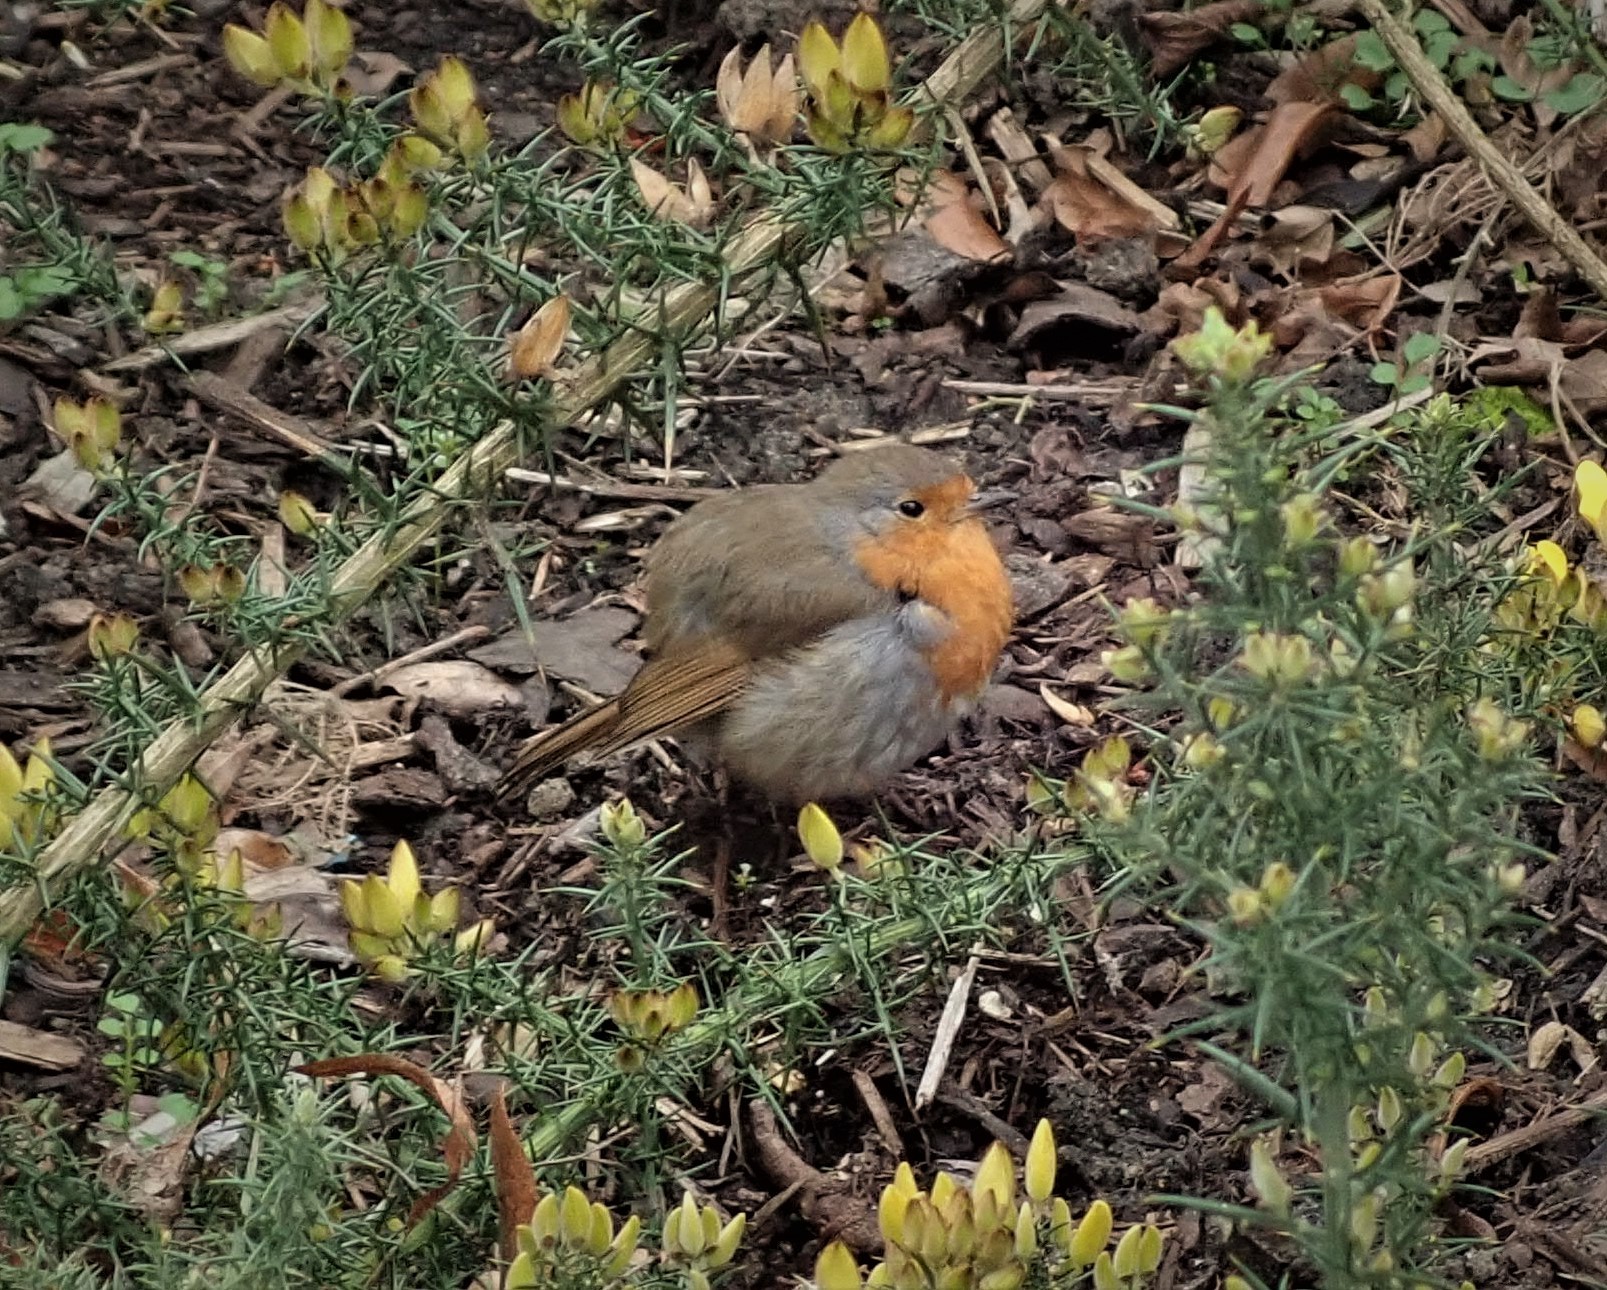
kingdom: Animalia
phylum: Chordata
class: Aves
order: Passeriformes
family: Muscicapidae
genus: Erithacus
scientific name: Erithacus rubecula
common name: European robin
